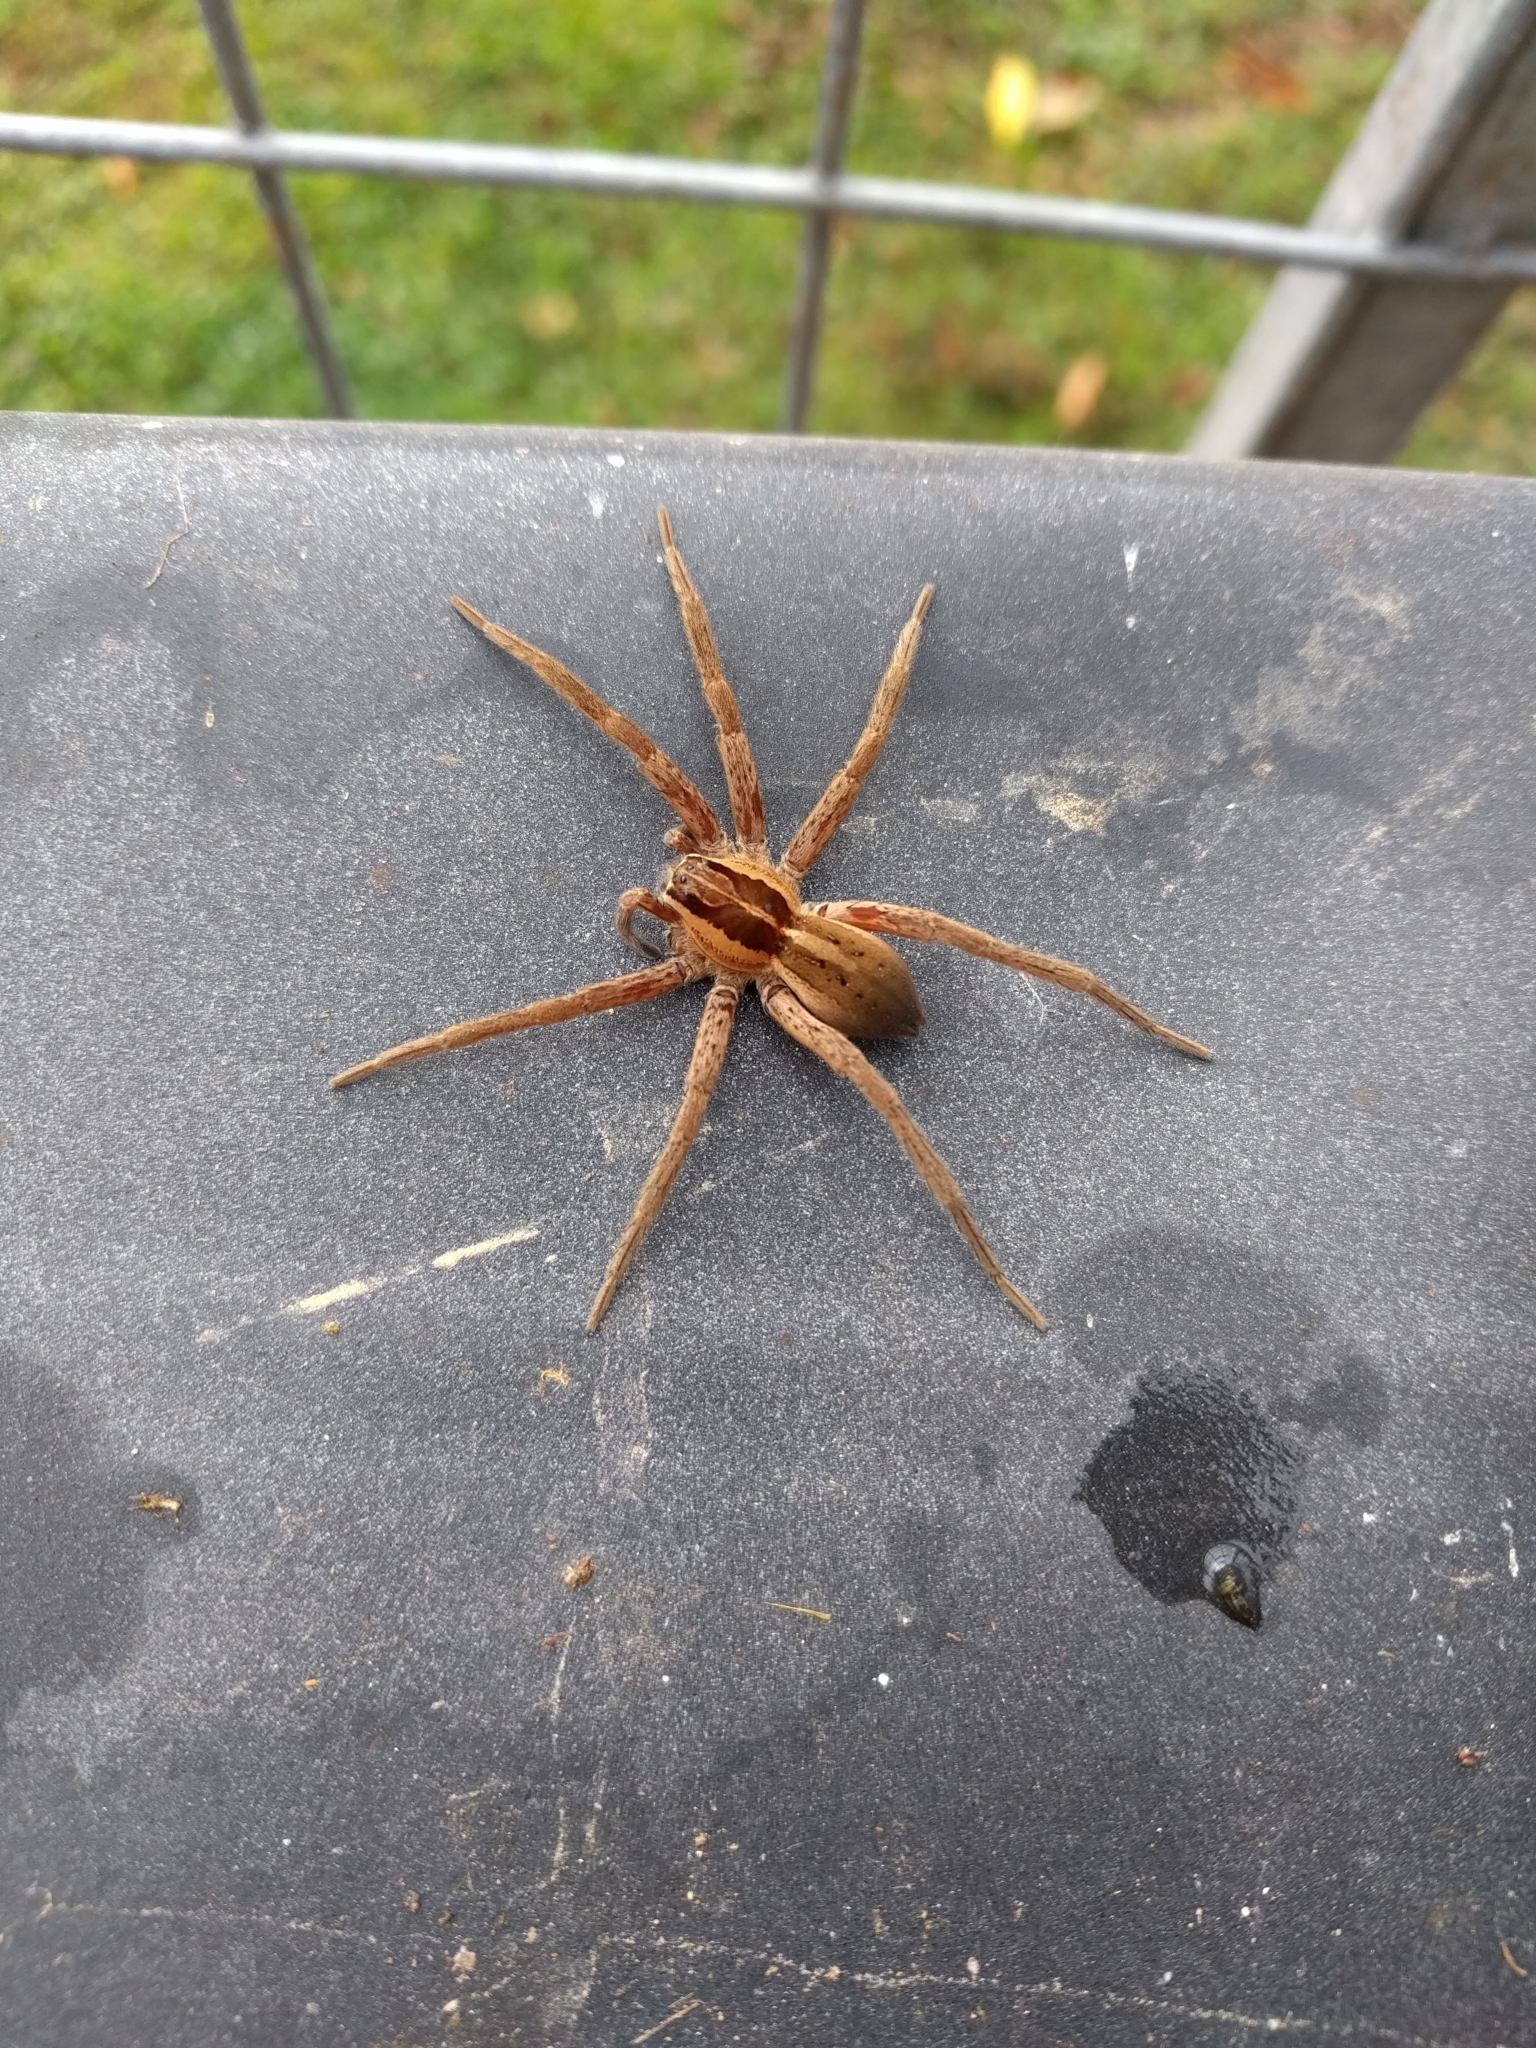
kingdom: Animalia
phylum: Arthropoda
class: Arachnida
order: Araneae
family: Pisauridae
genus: Dolomedes
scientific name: Dolomedes minor
